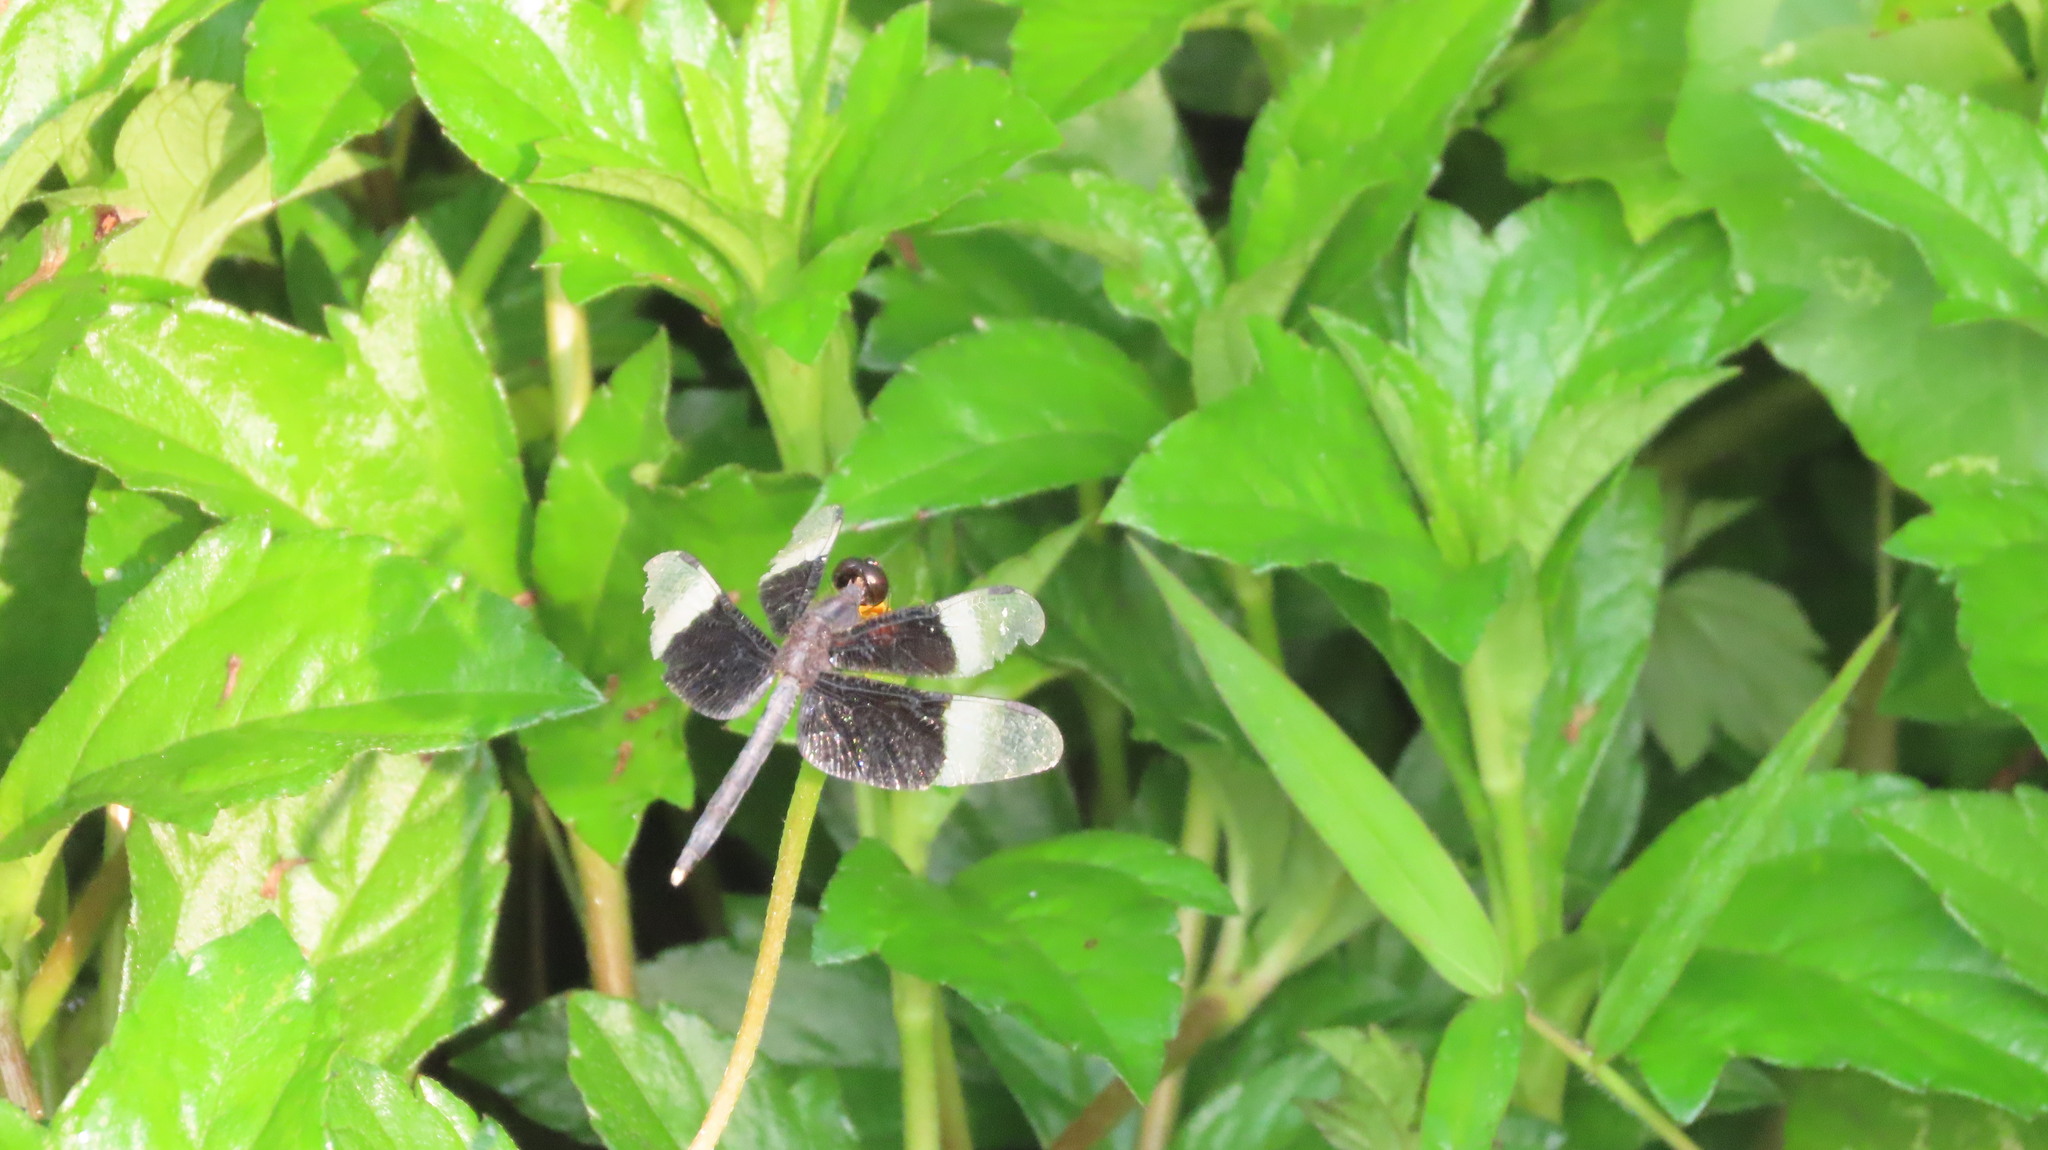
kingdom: Animalia
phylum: Arthropoda
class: Insecta
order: Odonata
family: Libellulidae
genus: Neurothemis
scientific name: Neurothemis tullia
